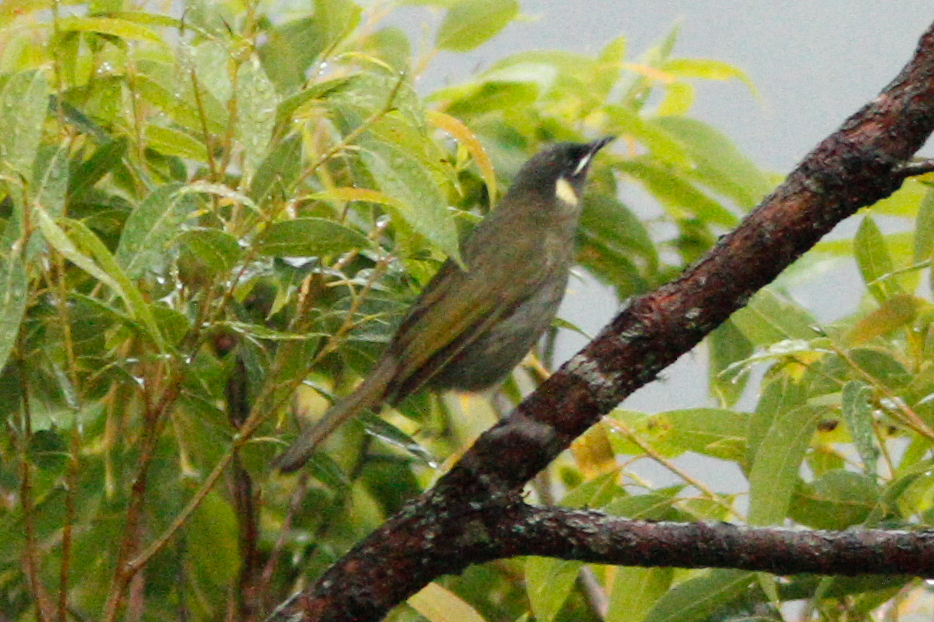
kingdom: Animalia
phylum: Chordata
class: Aves
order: Passeriformes
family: Meliphagidae
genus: Meliphaga
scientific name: Meliphaga lewinii
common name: Lewin's honeyeater
